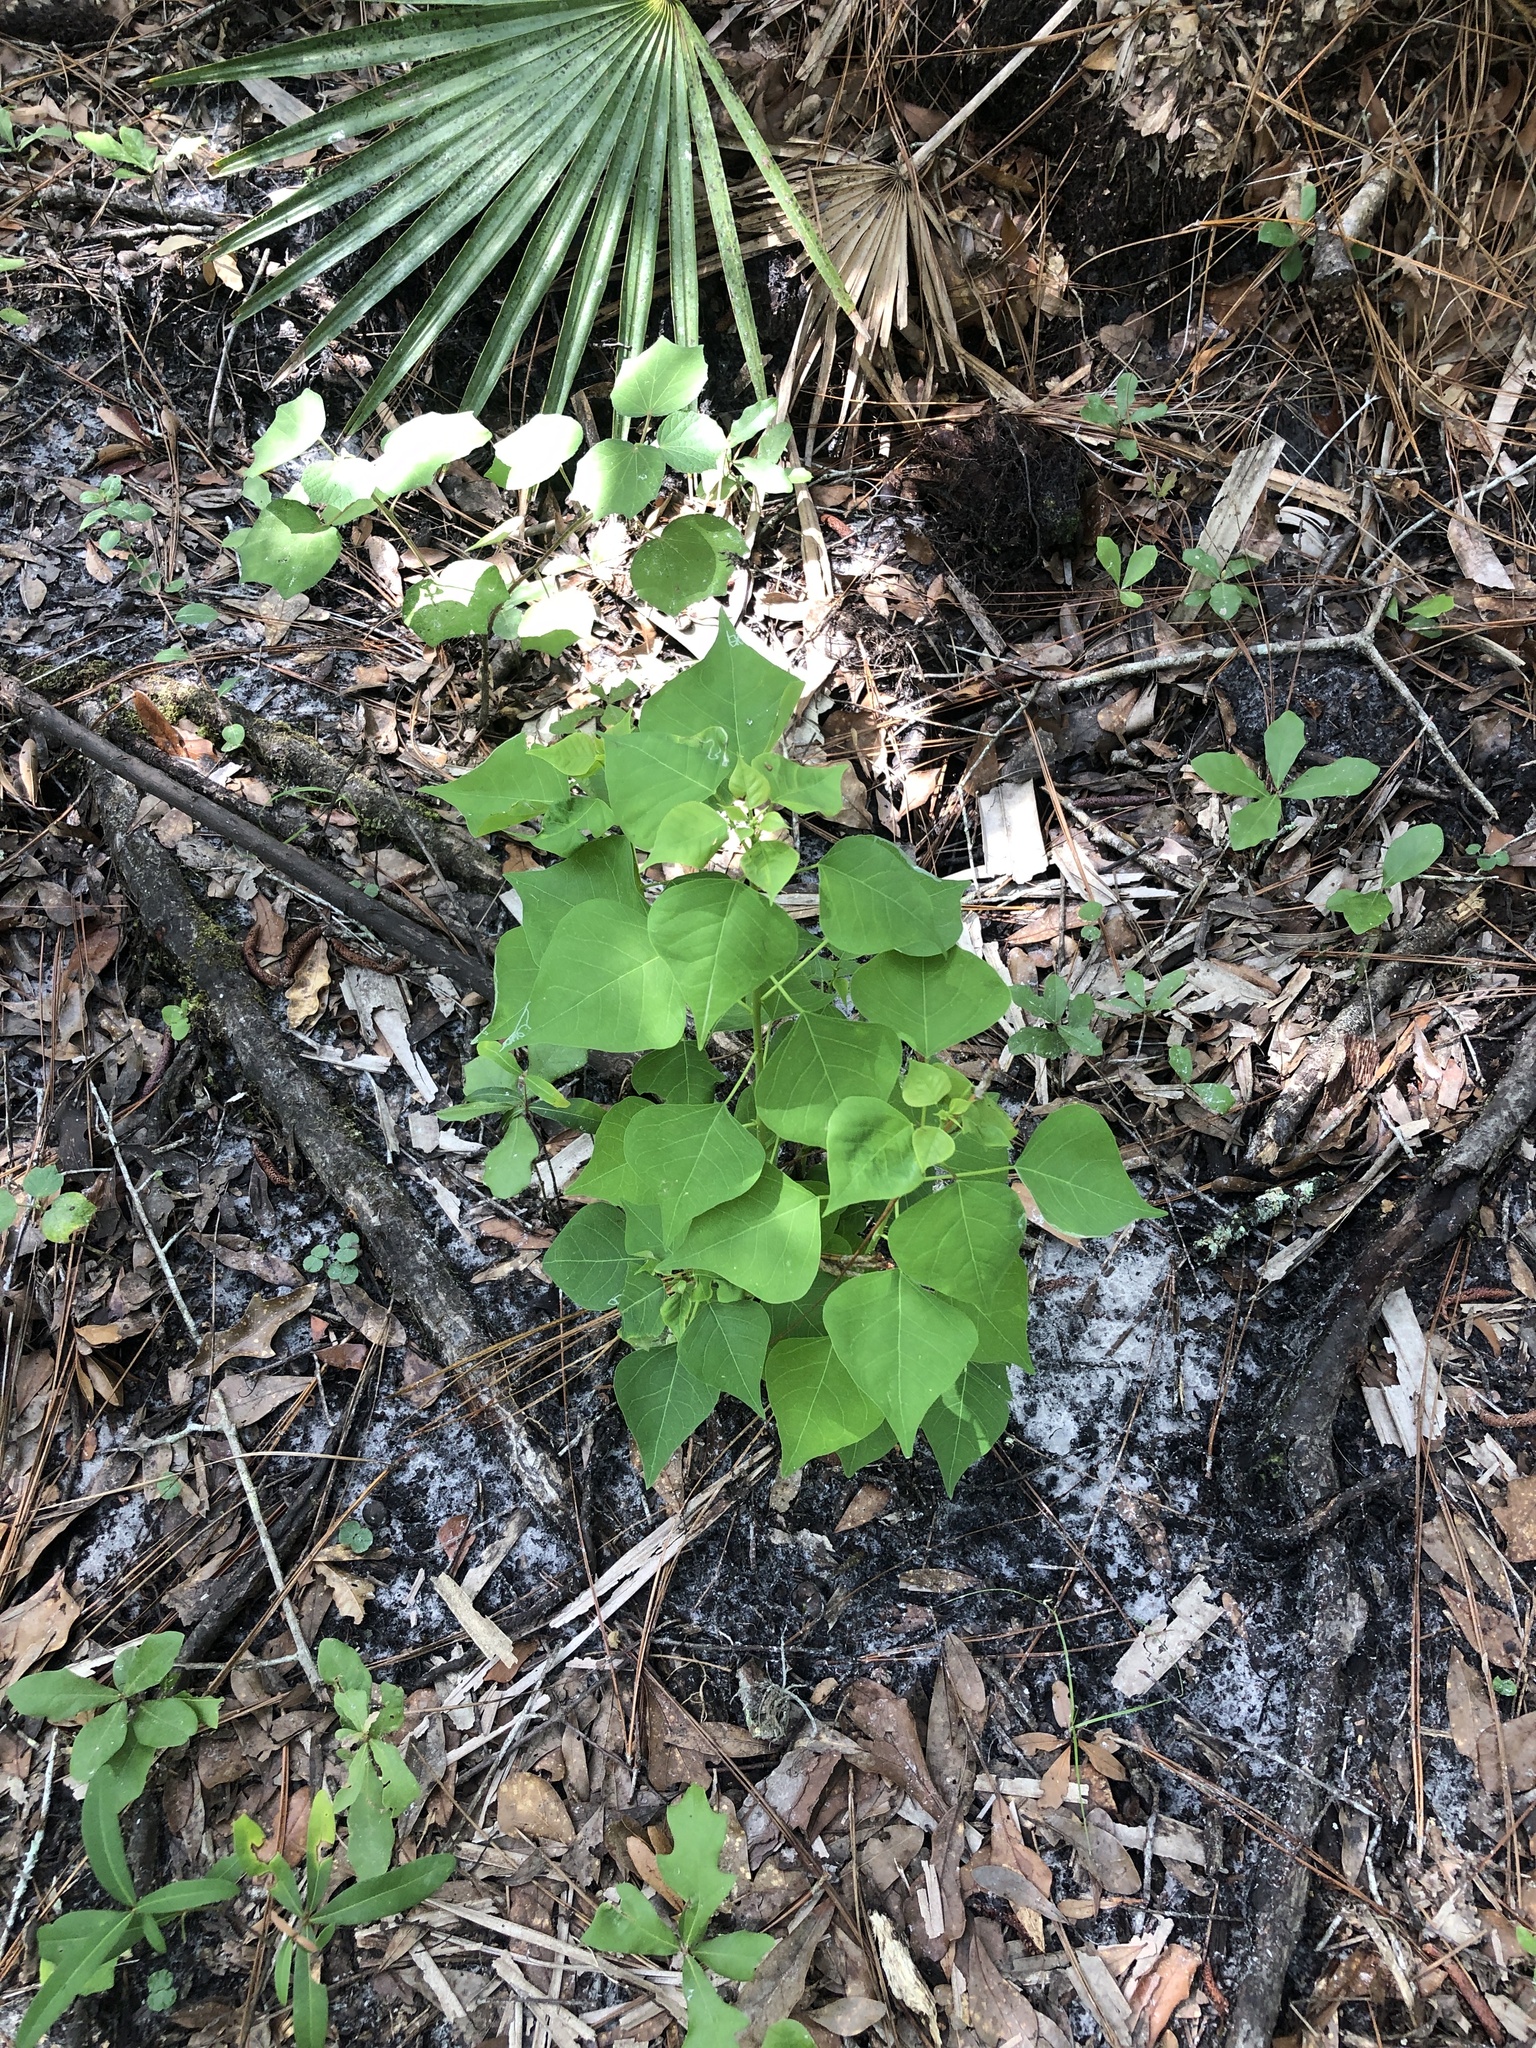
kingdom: Plantae
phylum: Tracheophyta
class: Magnoliopsida
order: Malpighiales
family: Euphorbiaceae
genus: Triadica
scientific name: Triadica sebifera
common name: Chinese tallow
